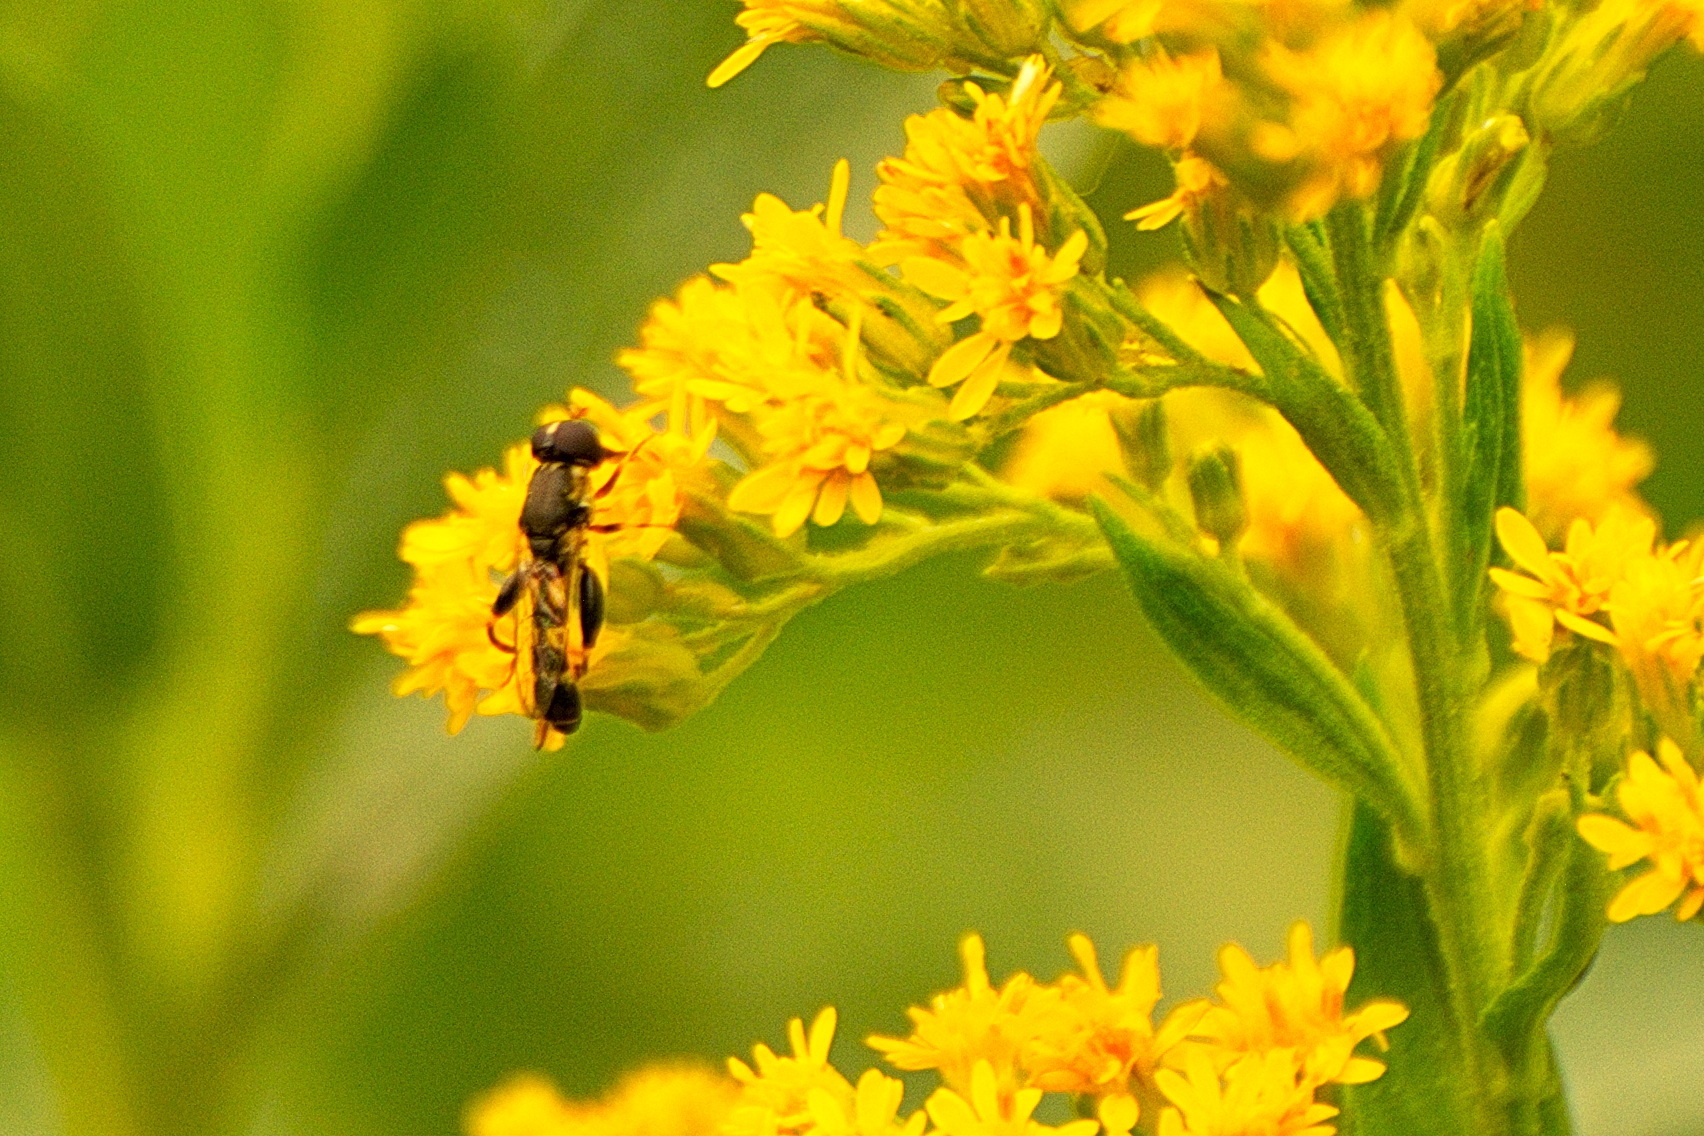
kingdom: Animalia
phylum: Arthropoda
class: Insecta
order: Diptera
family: Syrphidae
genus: Syritta
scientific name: Syritta pipiens
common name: Hover fly
